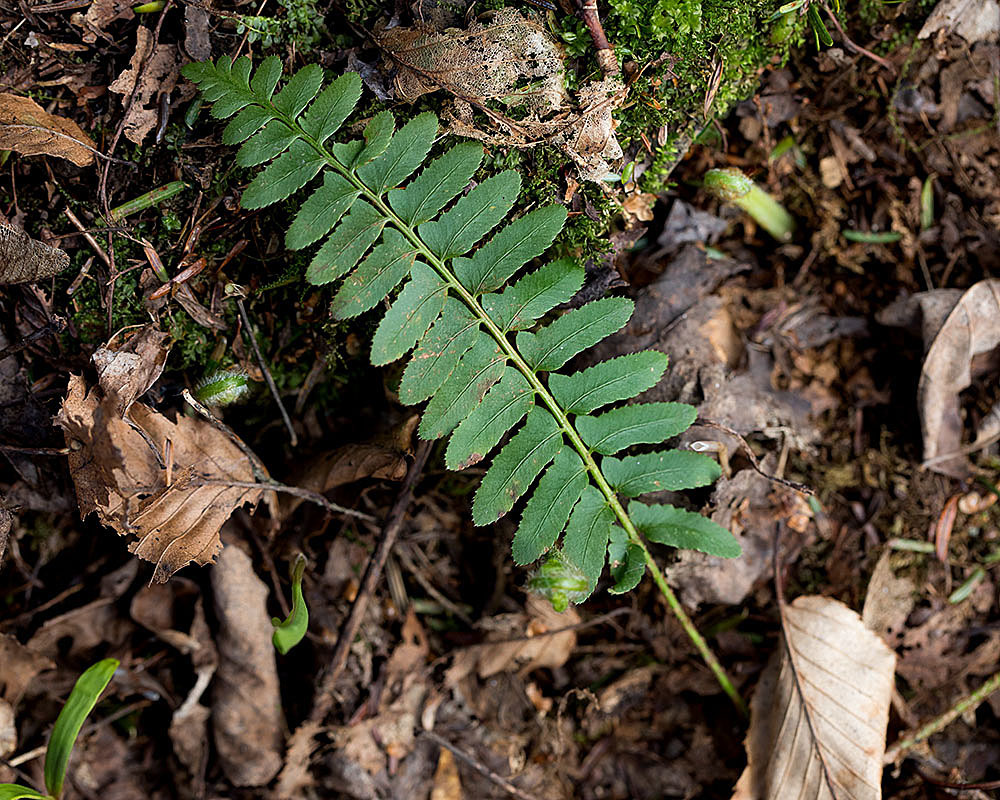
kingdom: Plantae
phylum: Tracheophyta
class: Polypodiopsida
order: Polypodiales
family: Dryopteridaceae
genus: Polystichum
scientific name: Polystichum acrostichoides
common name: Christmas fern
